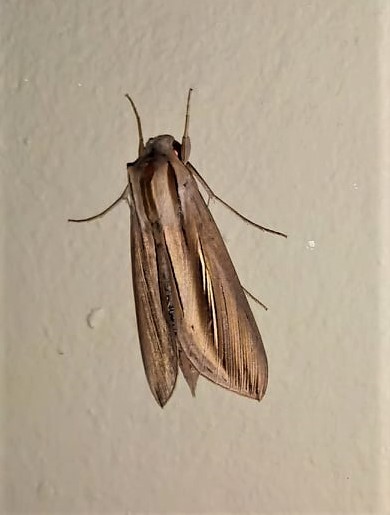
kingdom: Animalia
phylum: Arthropoda
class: Insecta
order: Lepidoptera
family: Sphingidae
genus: Phryxus
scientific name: Phryxus caicus
